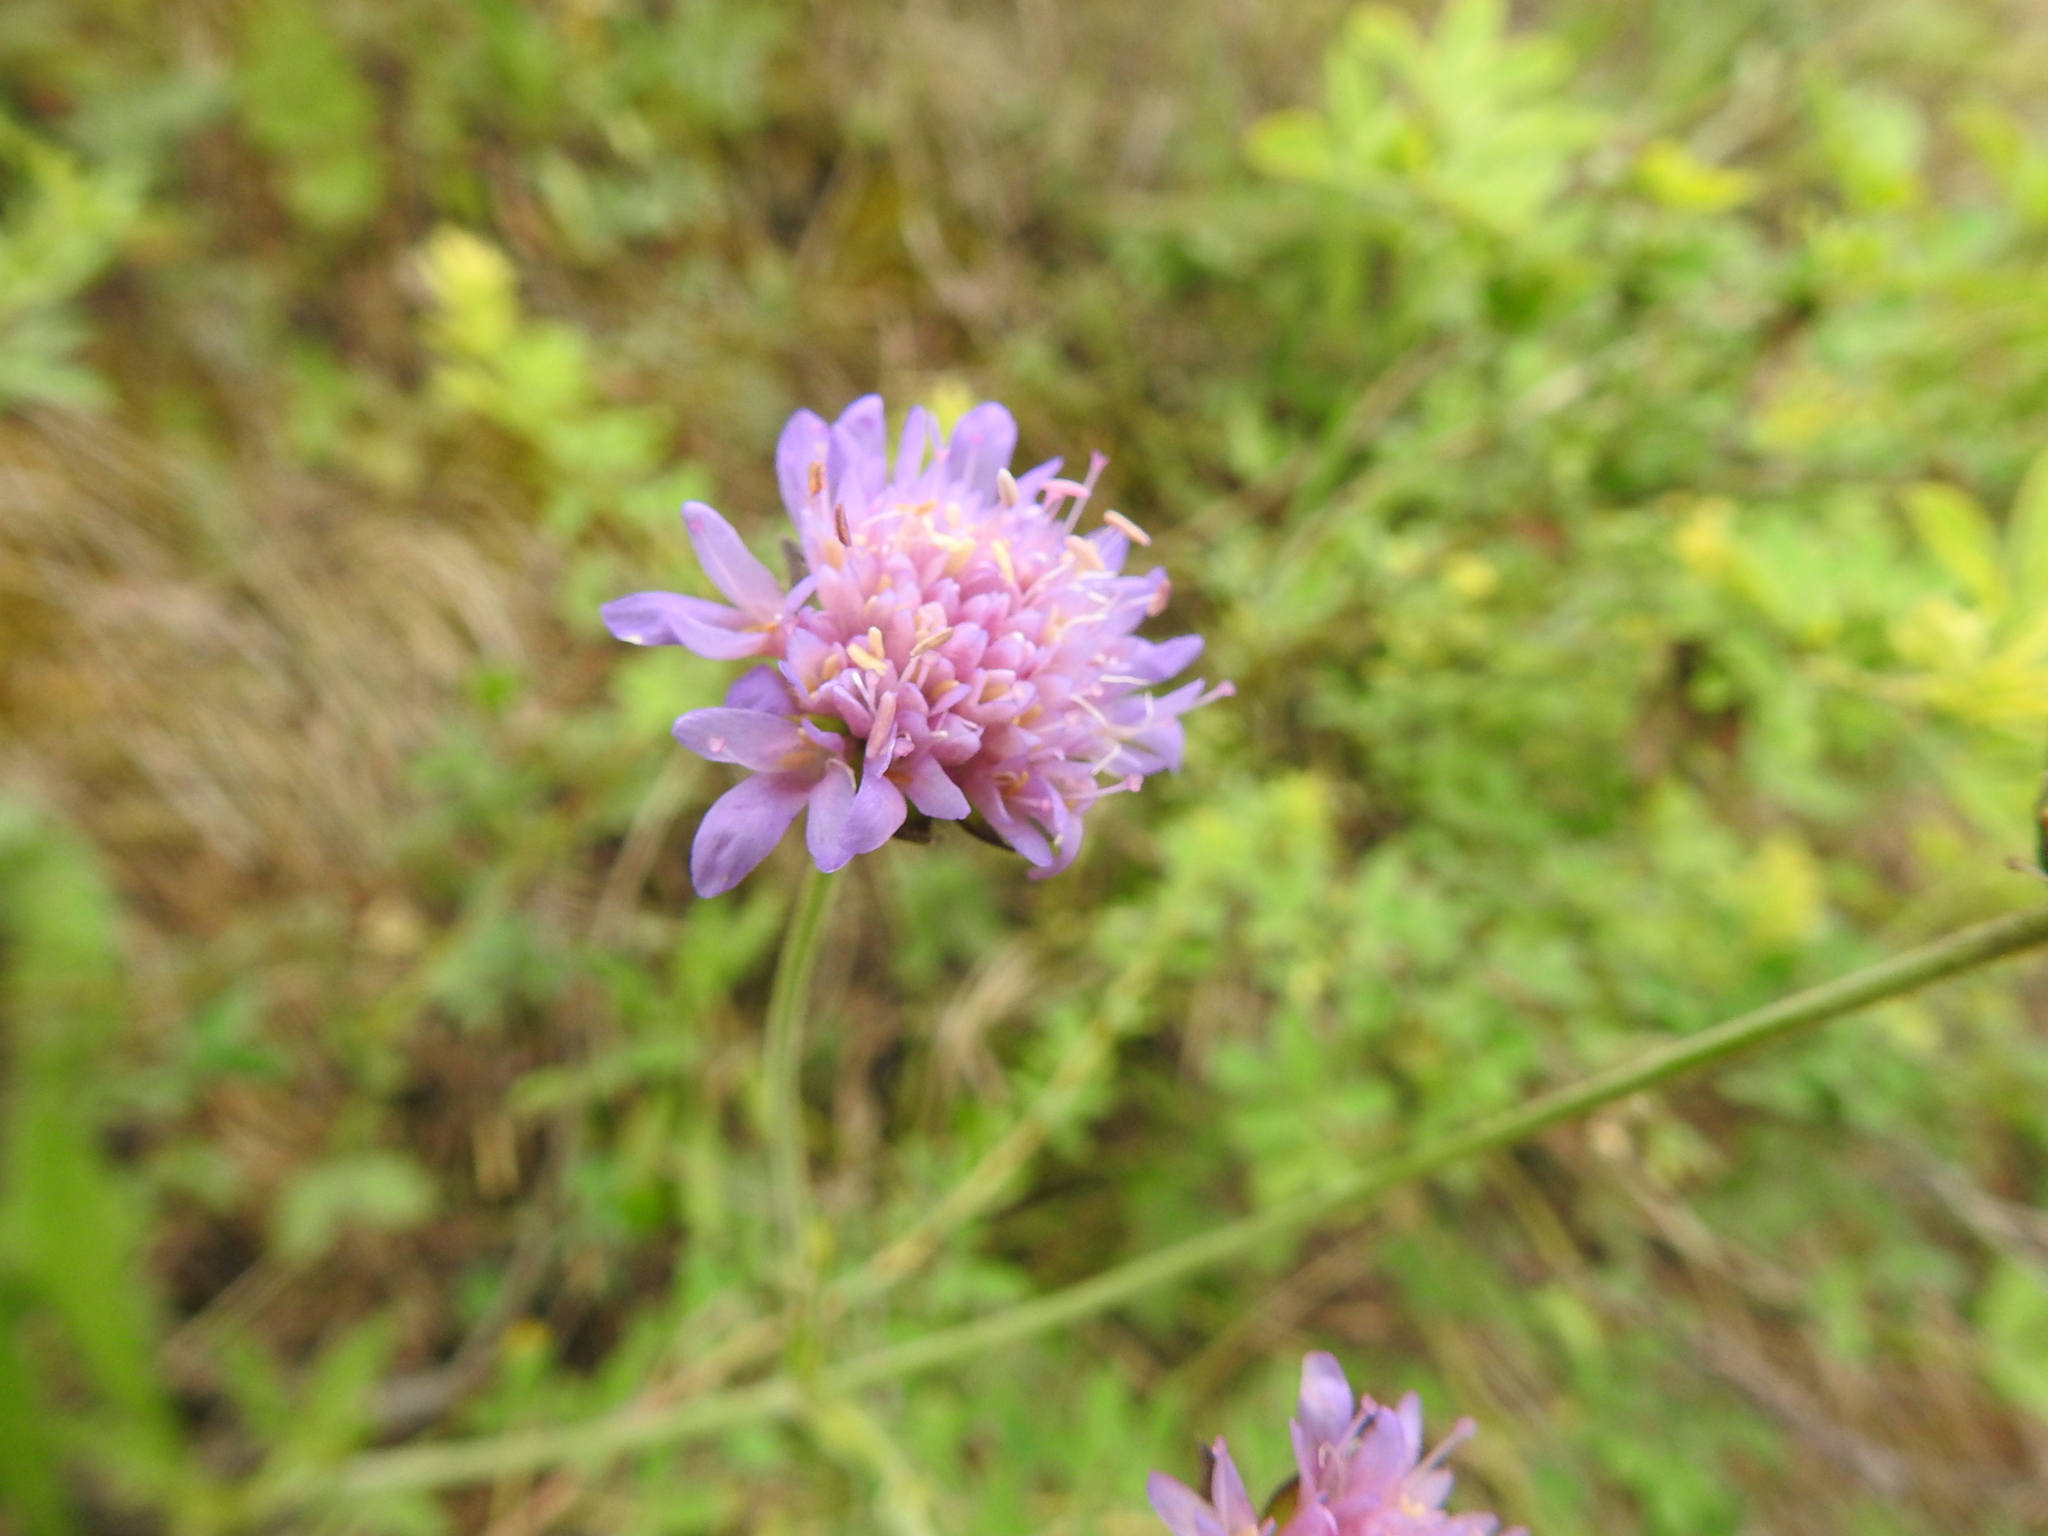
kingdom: Plantae
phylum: Tracheophyta
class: Magnoliopsida
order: Dipsacales
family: Caprifoliaceae
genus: Knautia
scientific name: Knautia arvensis
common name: Field scabiosa
